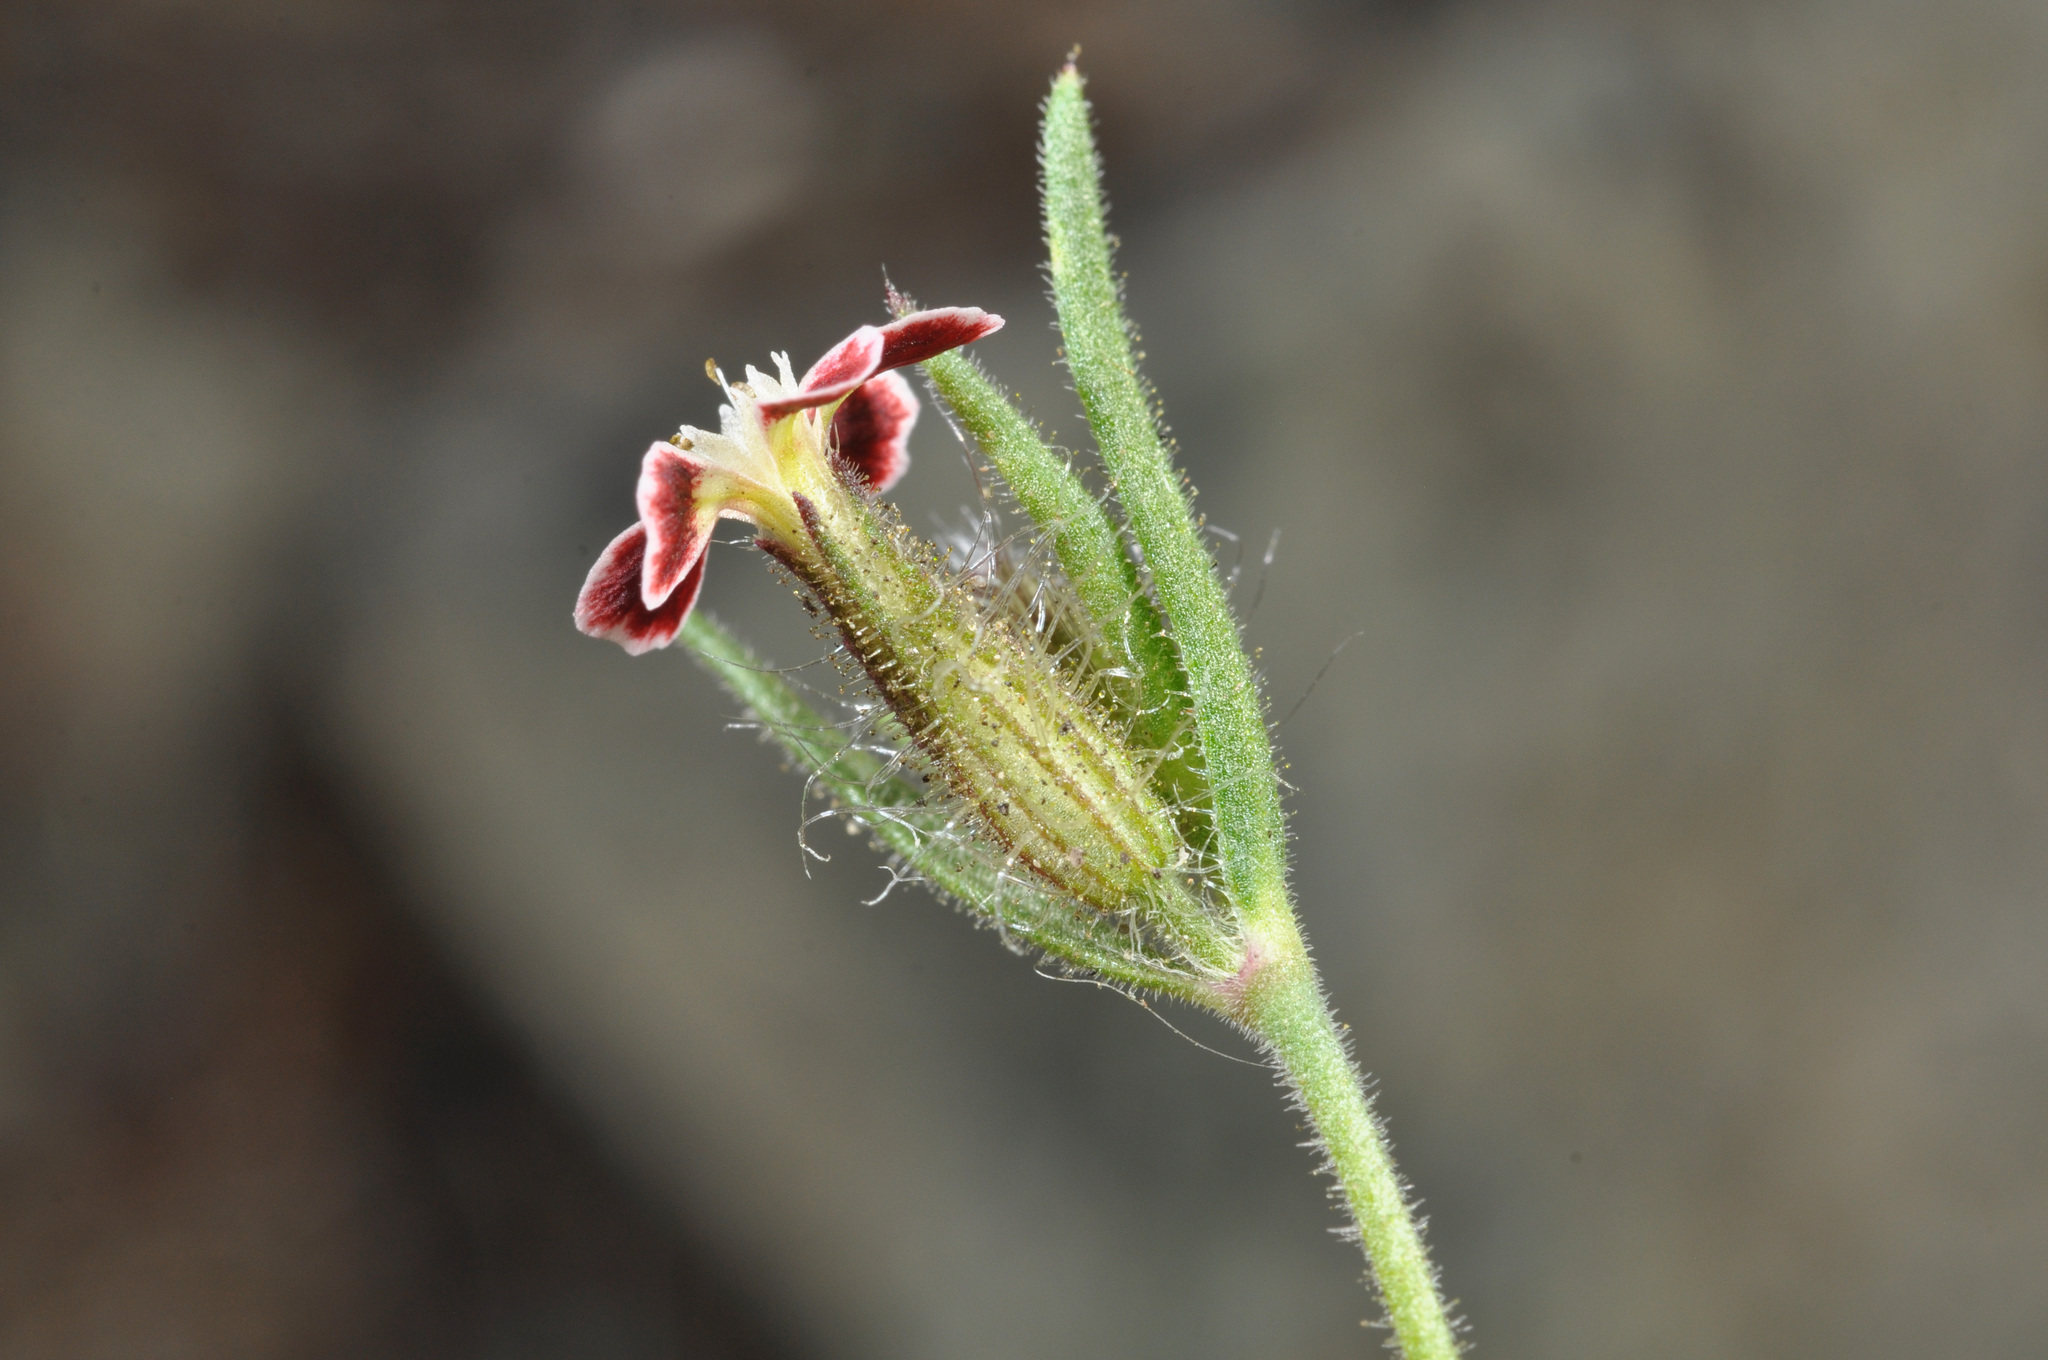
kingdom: Plantae
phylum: Tracheophyta
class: Magnoliopsida
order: Caryophyllales
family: Caryophyllaceae
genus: Silene
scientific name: Silene gallica
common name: Small-flowered catchfly
